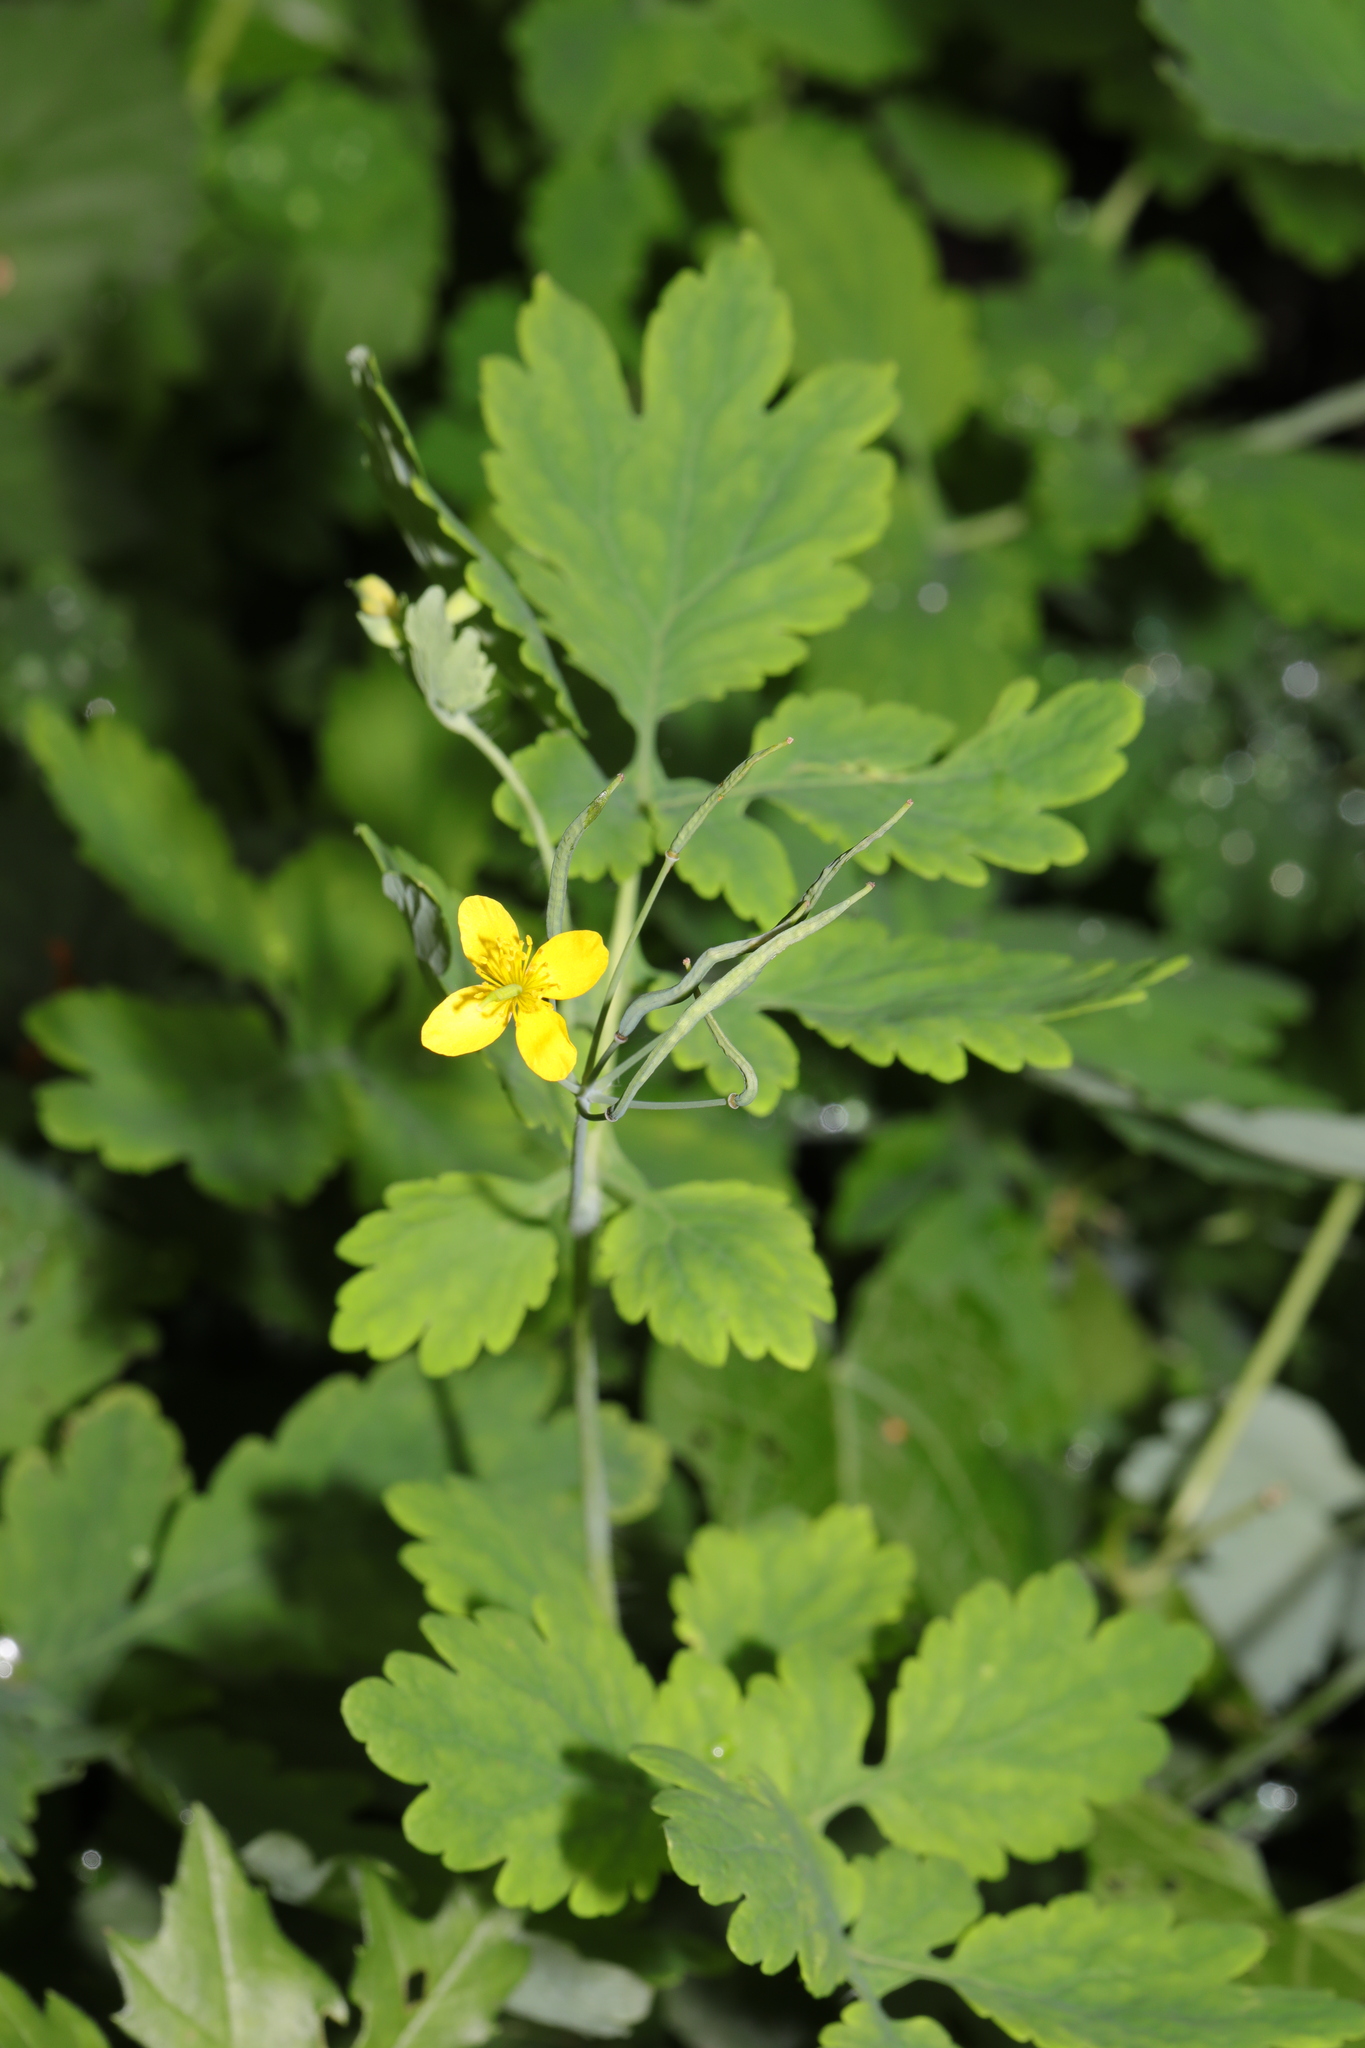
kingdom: Plantae
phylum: Tracheophyta
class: Magnoliopsida
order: Ranunculales
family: Papaveraceae
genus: Chelidonium
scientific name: Chelidonium majus
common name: Greater celandine
